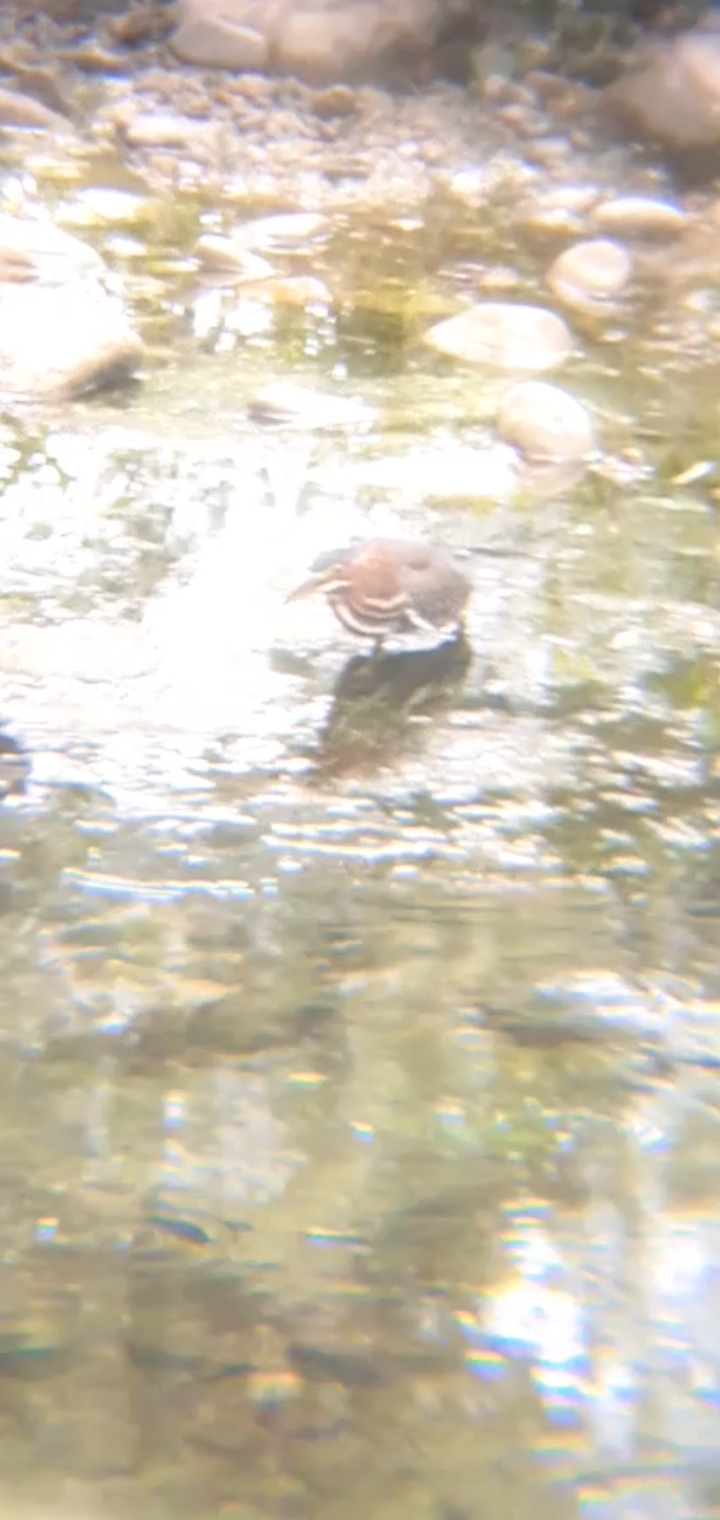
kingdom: Animalia
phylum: Chordata
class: Aves
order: Pelecaniformes
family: Ardeidae
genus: Butorides
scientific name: Butorides virescens
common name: Green heron
